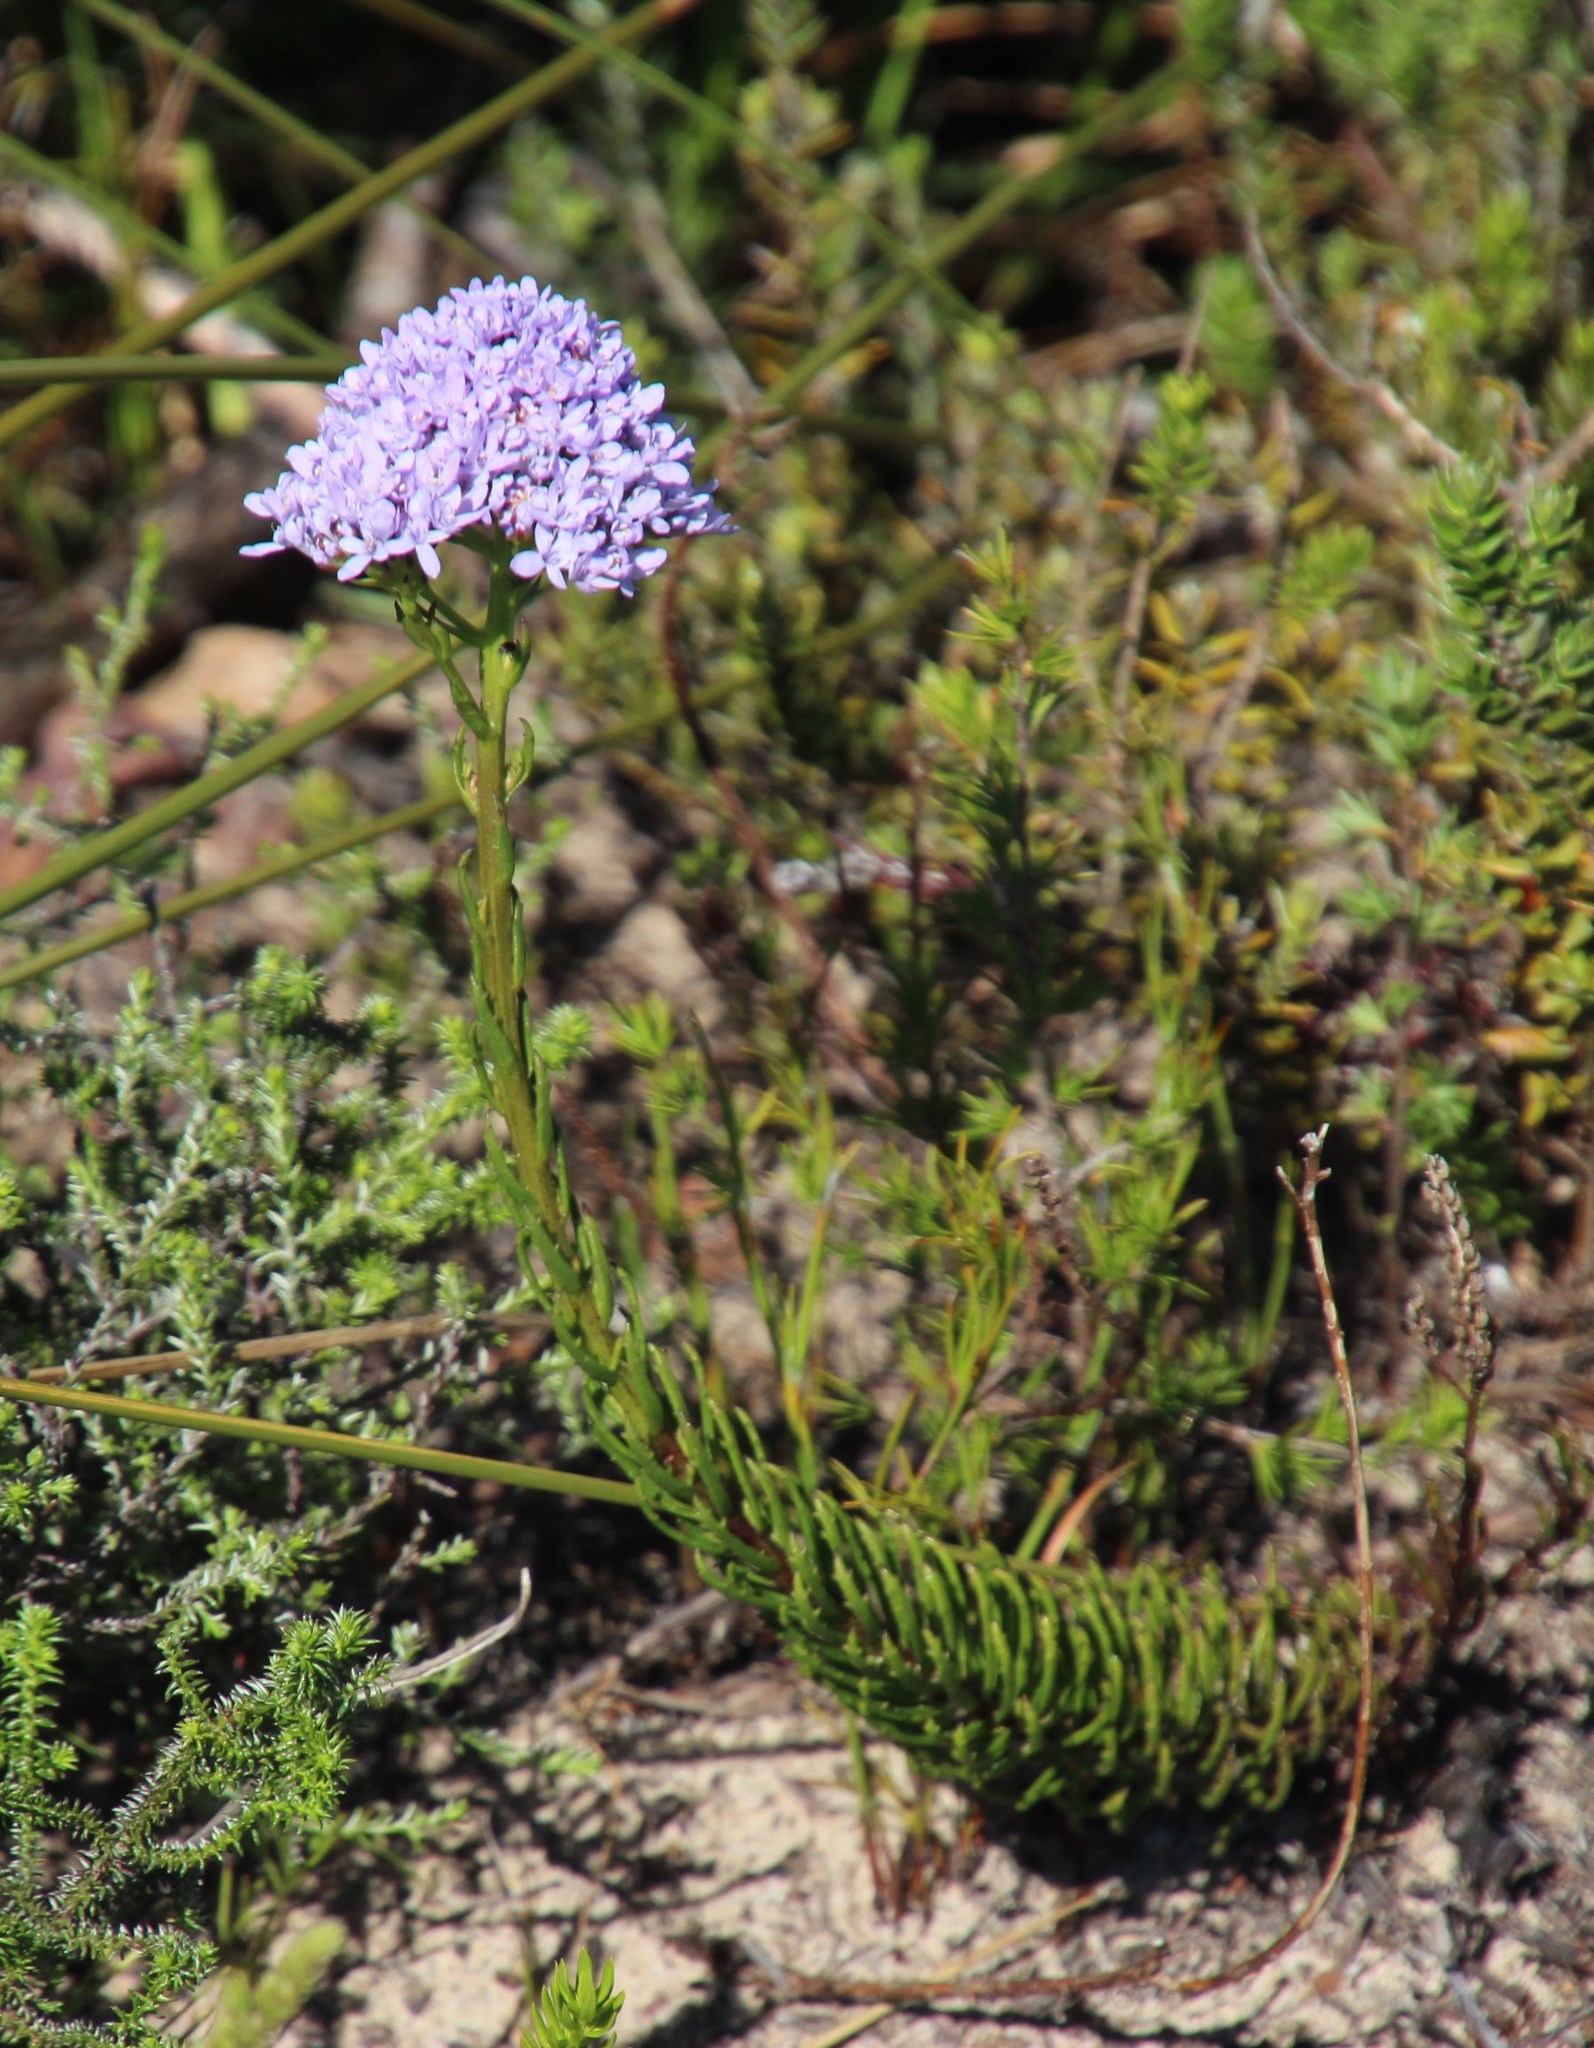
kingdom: Plantae
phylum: Tracheophyta
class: Magnoliopsida
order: Lamiales
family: Scrophulariaceae
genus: Pseudoselago
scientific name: Pseudoselago spuria
